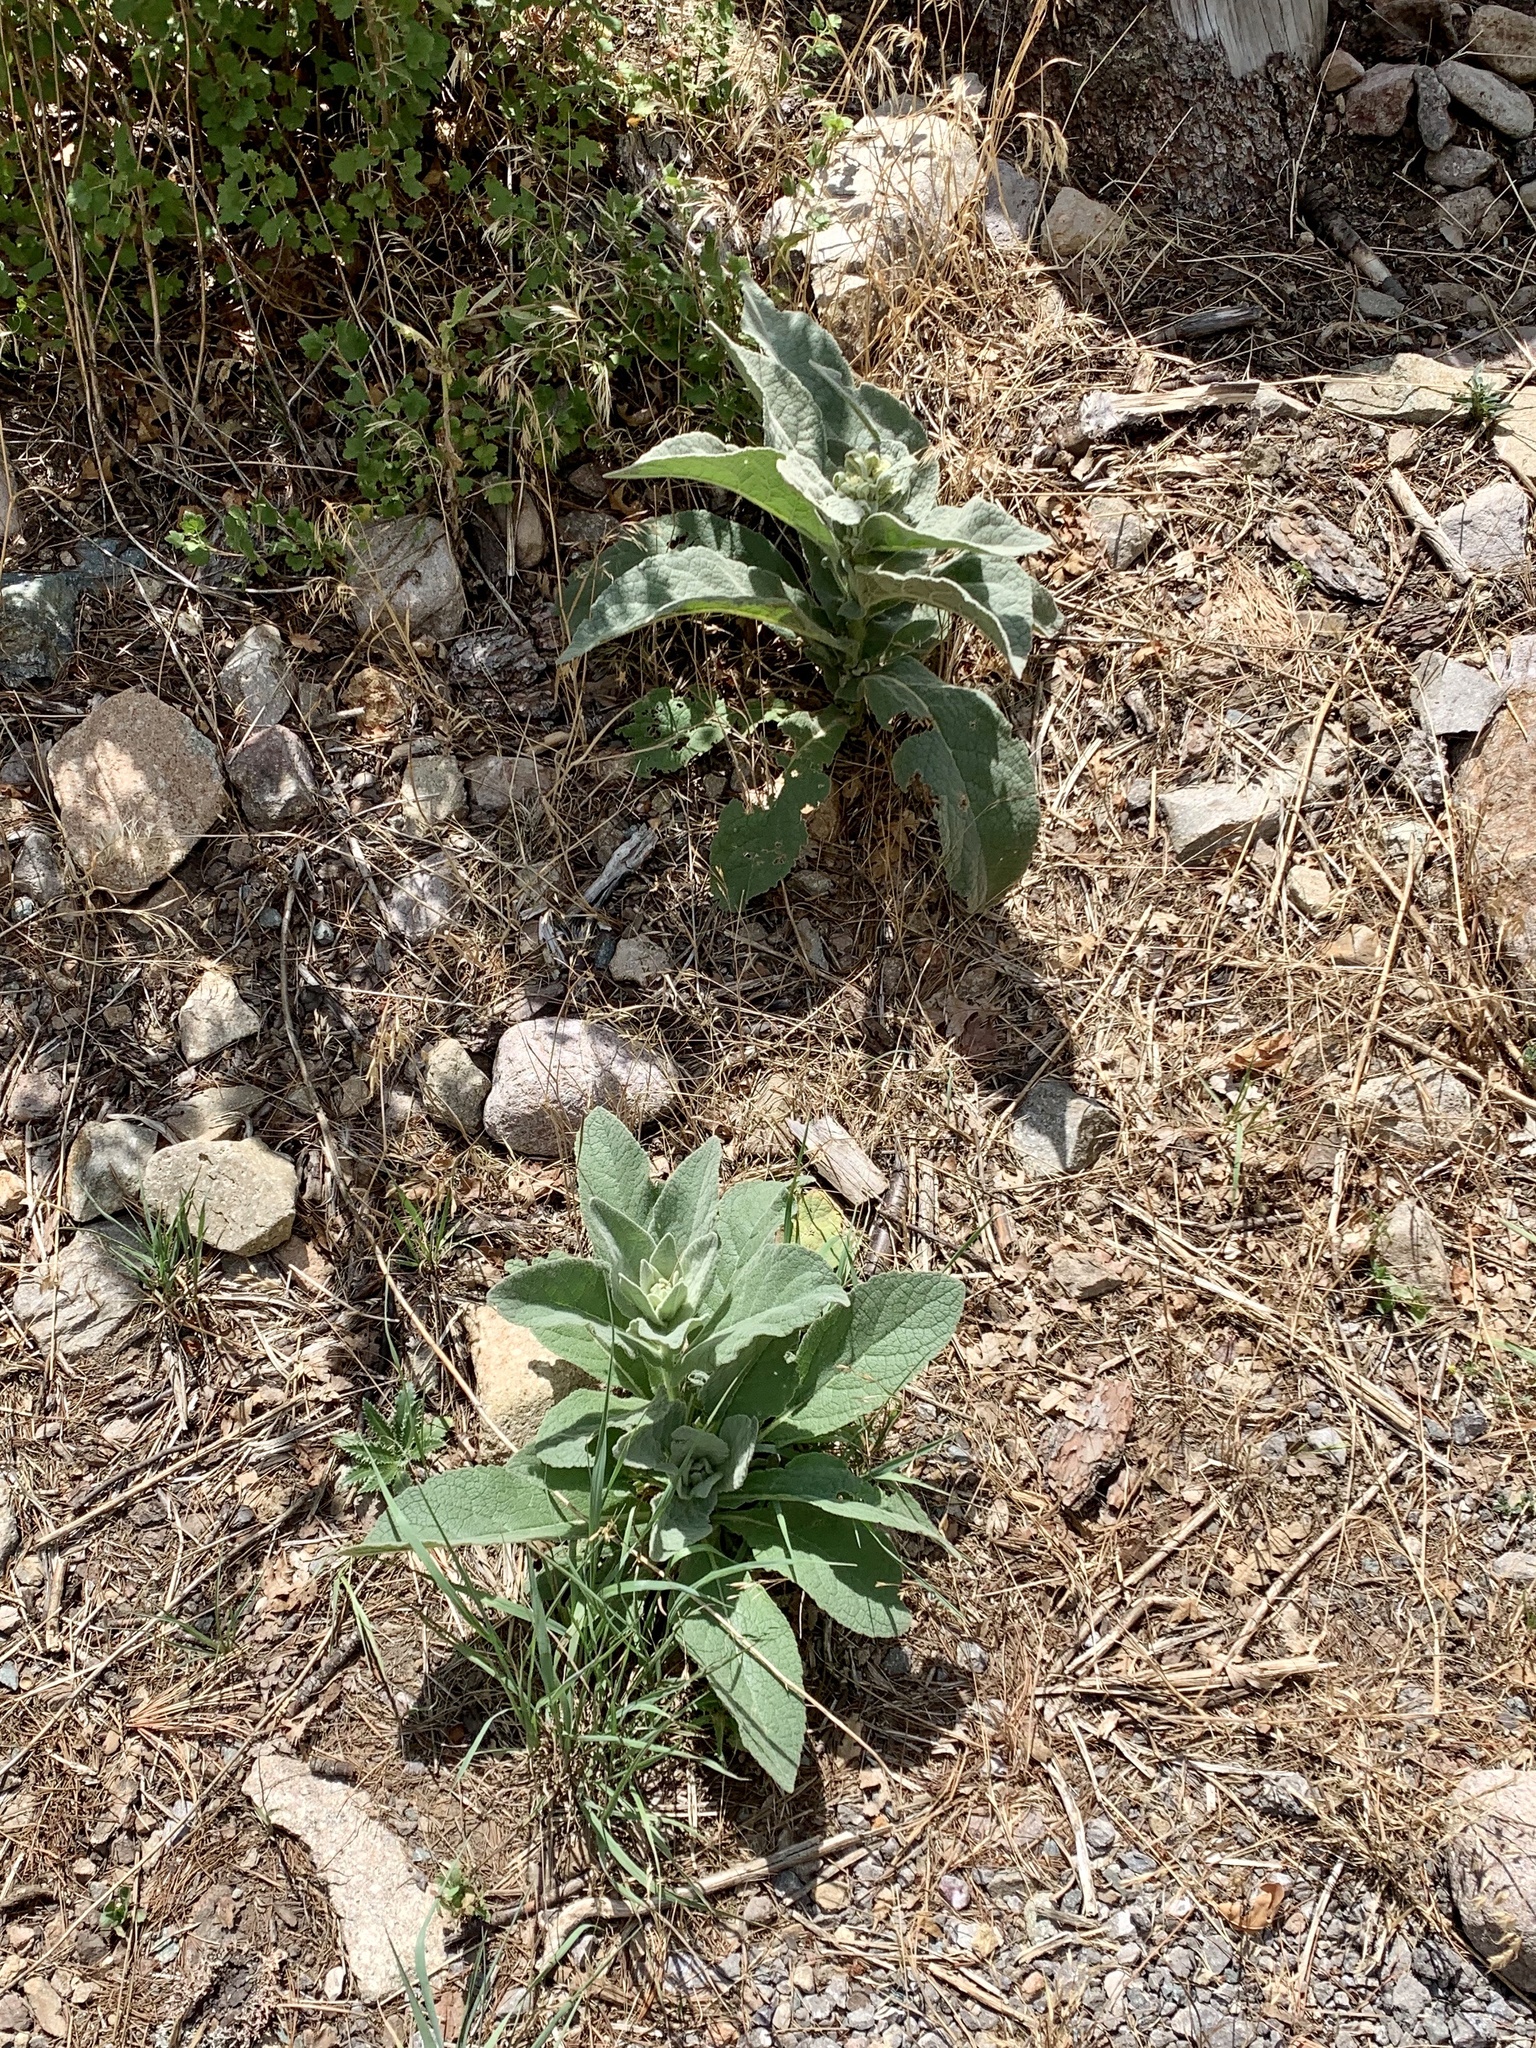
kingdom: Plantae
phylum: Tracheophyta
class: Magnoliopsida
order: Lamiales
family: Scrophulariaceae
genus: Verbascum
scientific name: Verbascum thapsus
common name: Common mullein
